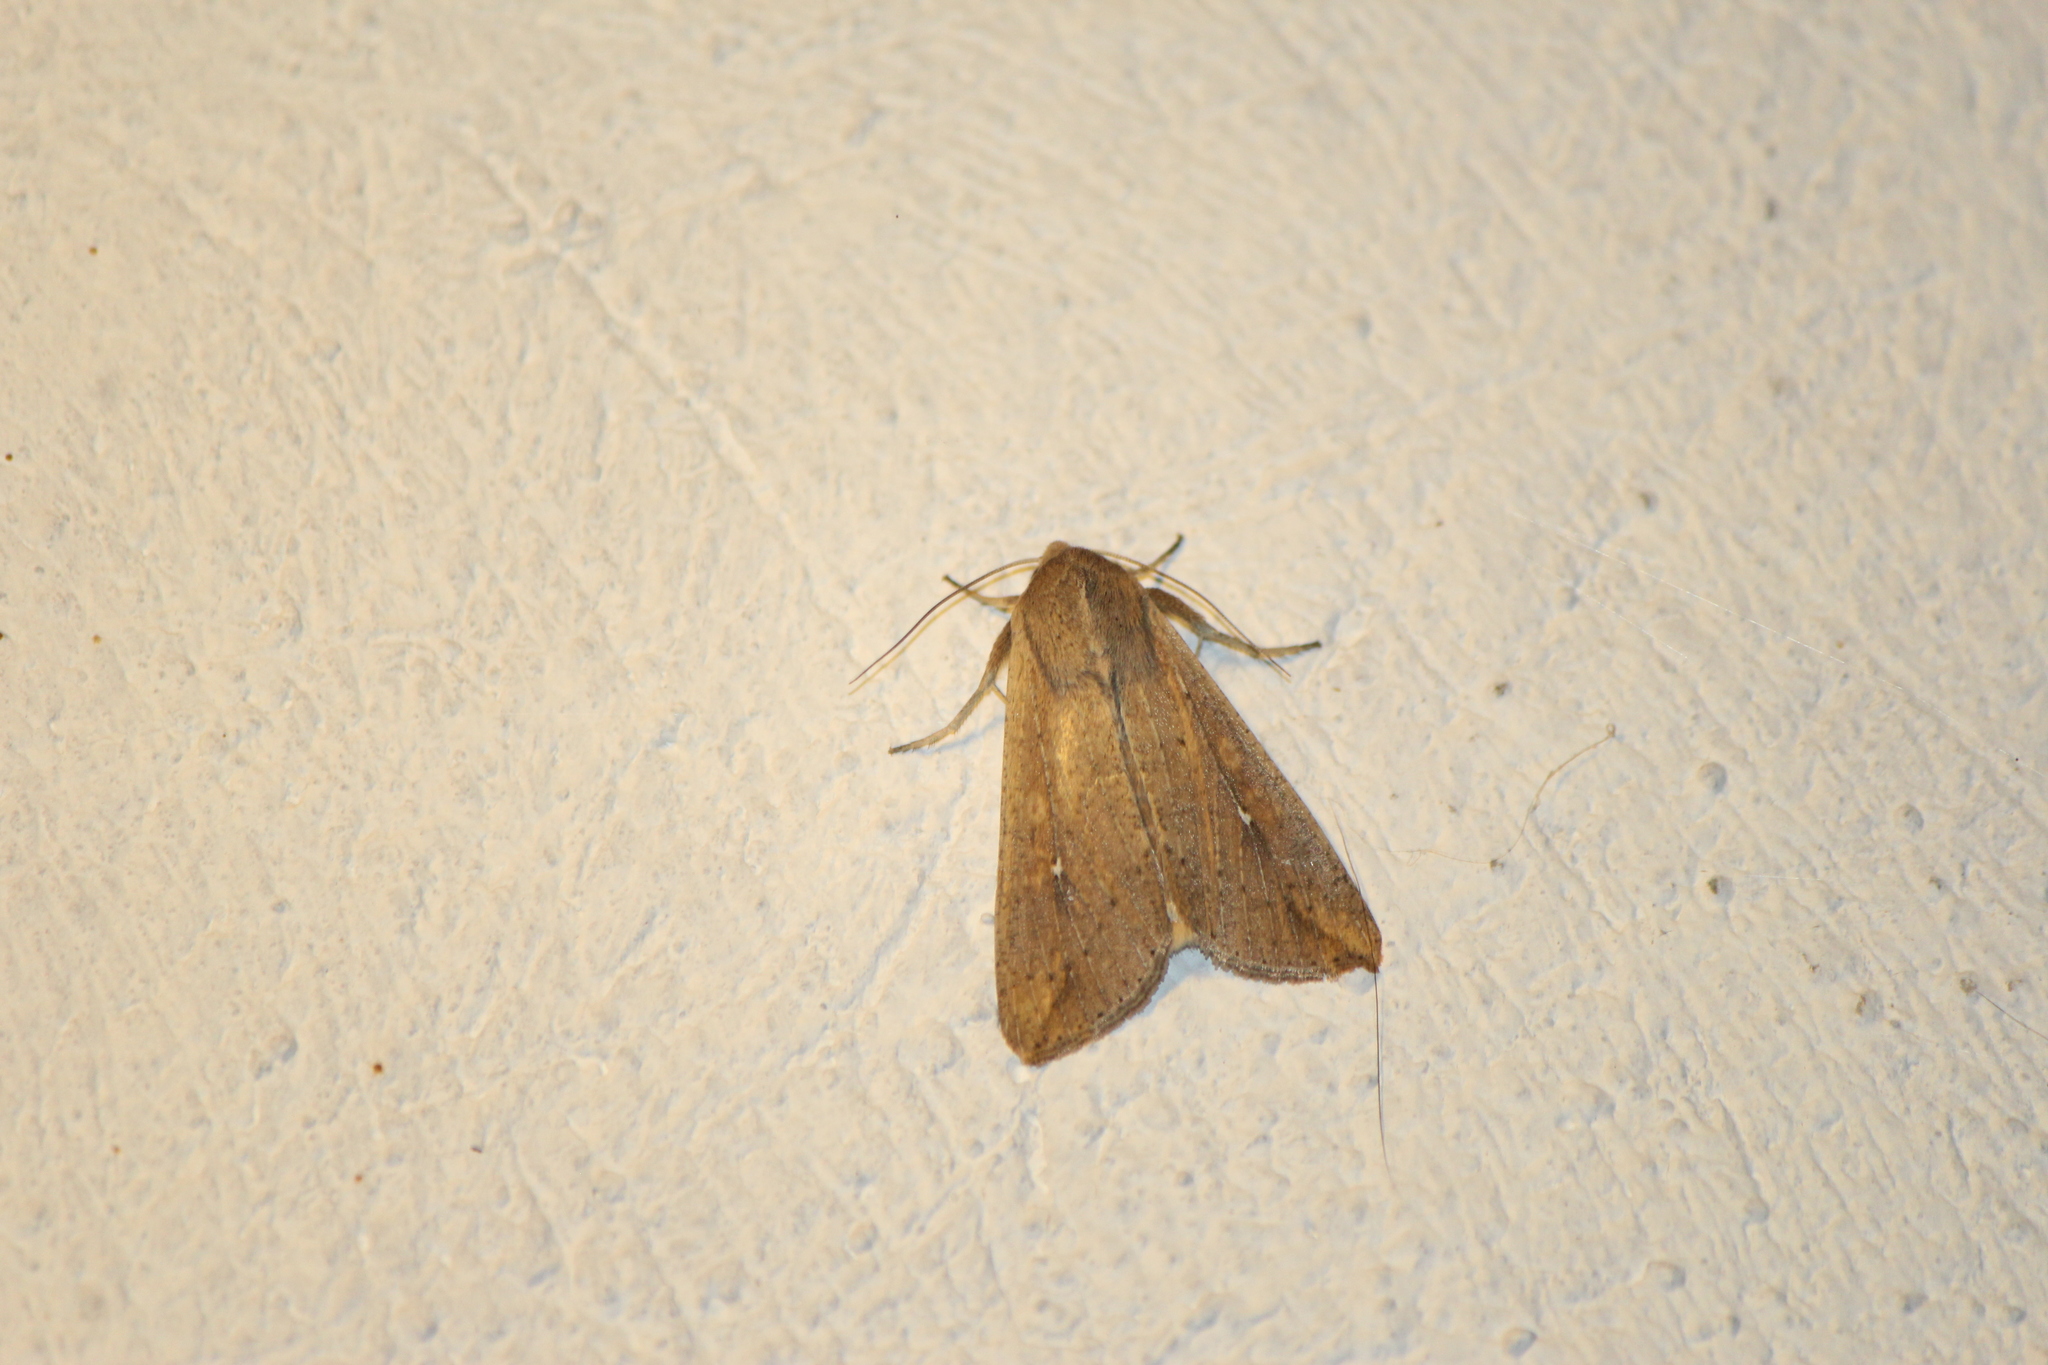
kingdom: Animalia
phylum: Arthropoda
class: Insecta
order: Lepidoptera
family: Noctuidae
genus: Mythimna
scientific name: Mythimna unipuncta
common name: White-speck
